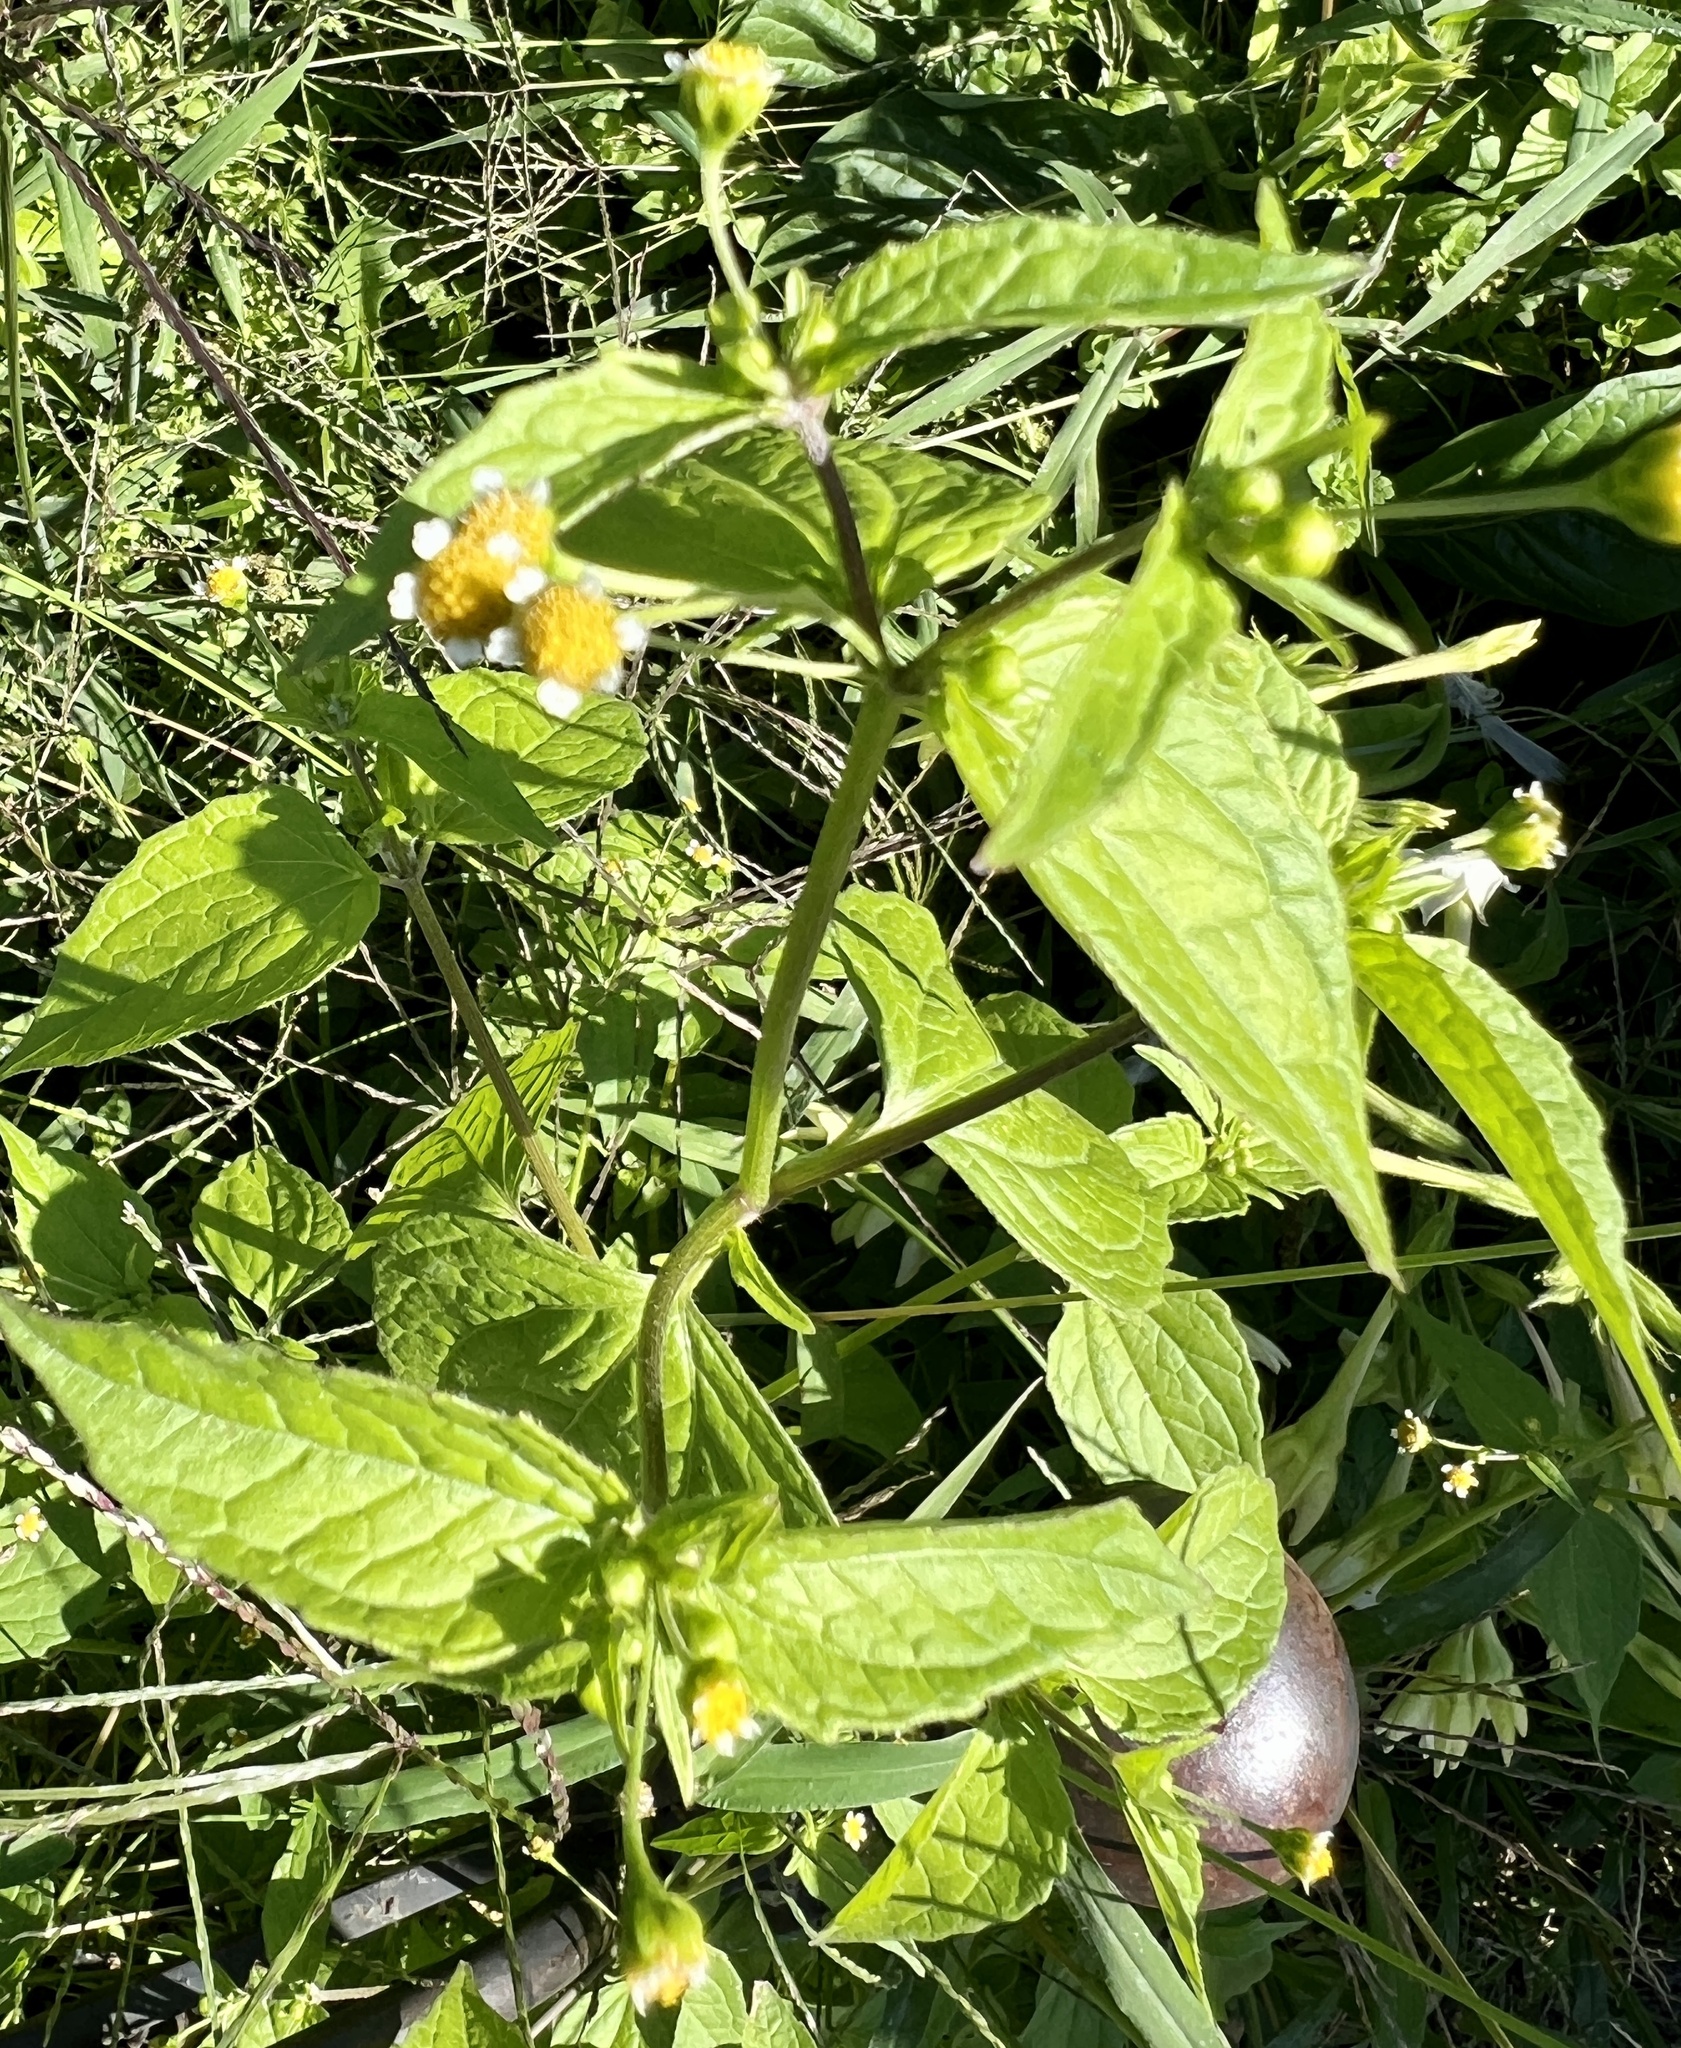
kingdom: Plantae
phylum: Tracheophyta
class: Magnoliopsida
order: Asterales
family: Asteraceae
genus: Galinsoga
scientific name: Galinsoga parviflora
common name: Gallant soldier
